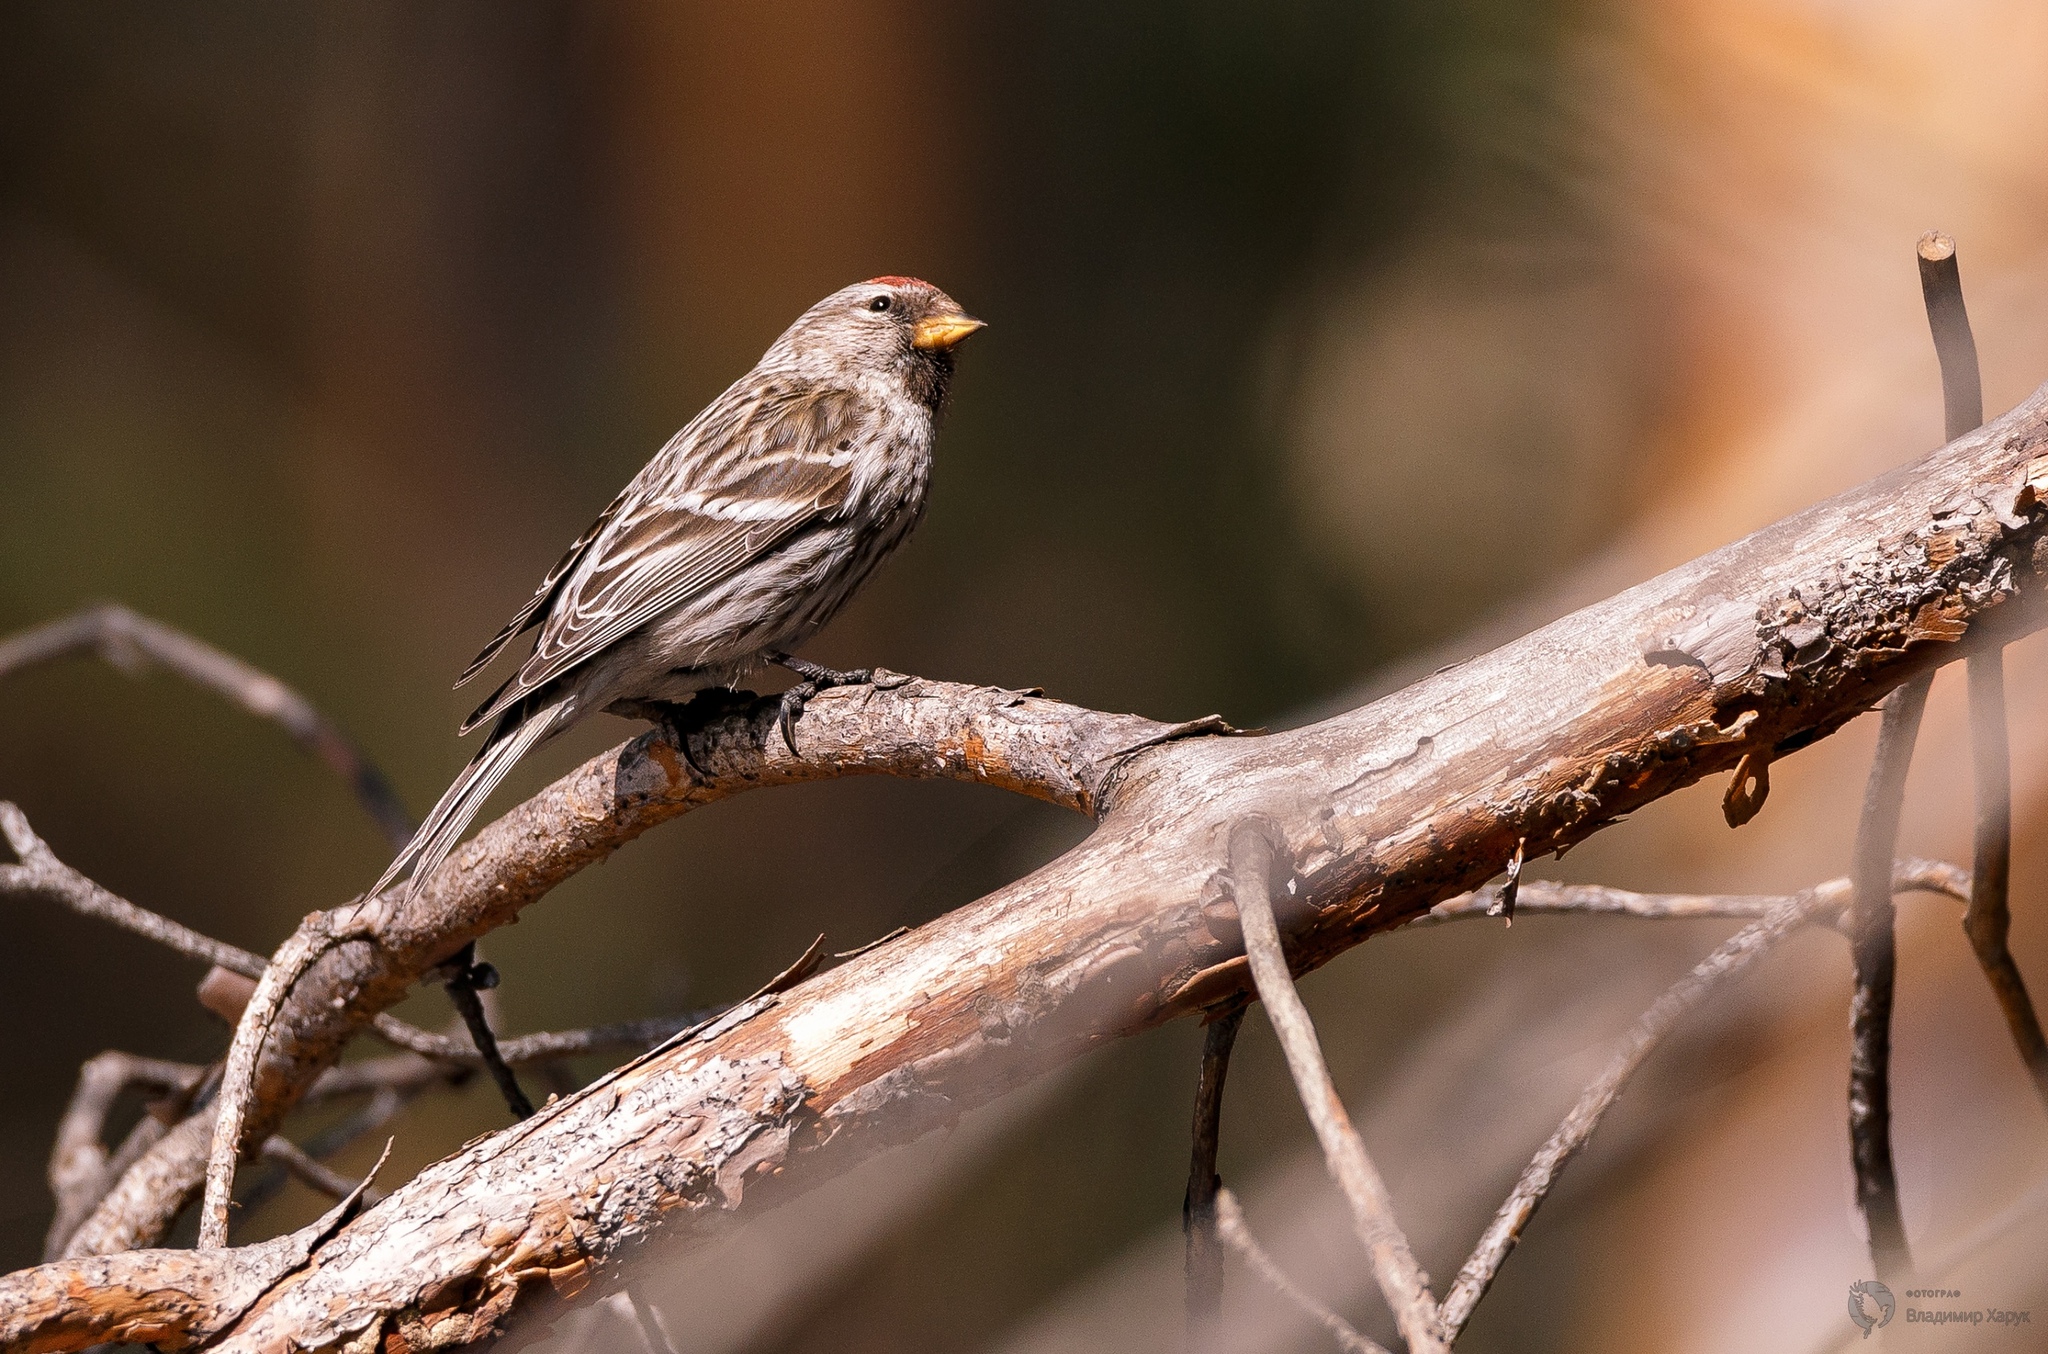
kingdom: Animalia
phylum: Chordata
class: Aves
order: Passeriformes
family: Fringillidae
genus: Acanthis
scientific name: Acanthis flammea
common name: Common redpoll
